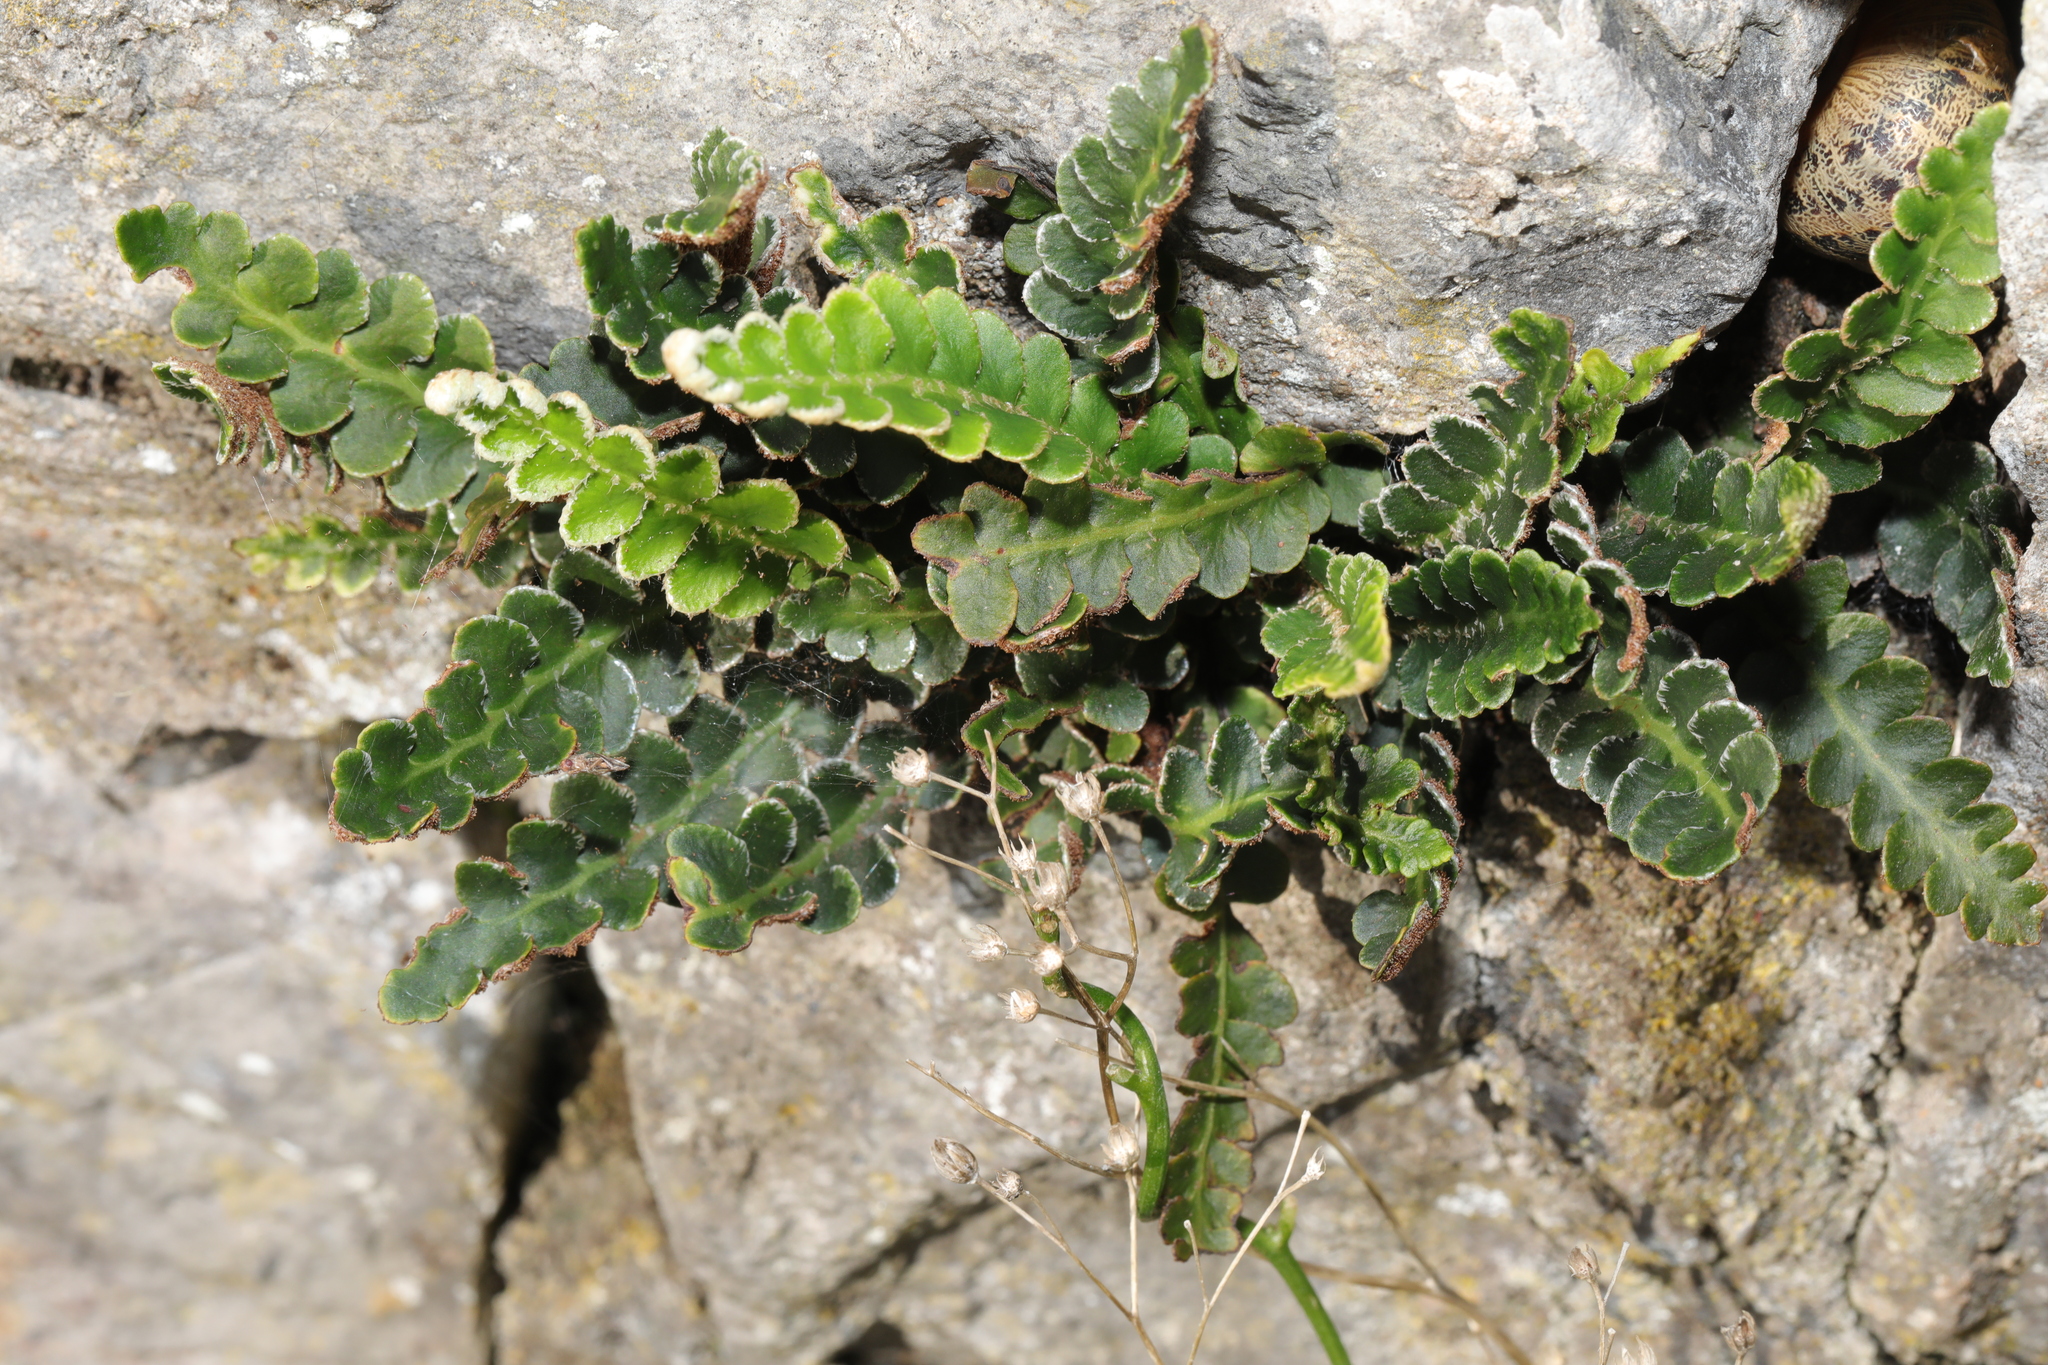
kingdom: Plantae
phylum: Tracheophyta
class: Polypodiopsida
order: Polypodiales
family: Aspleniaceae
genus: Asplenium
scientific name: Asplenium ceterach
